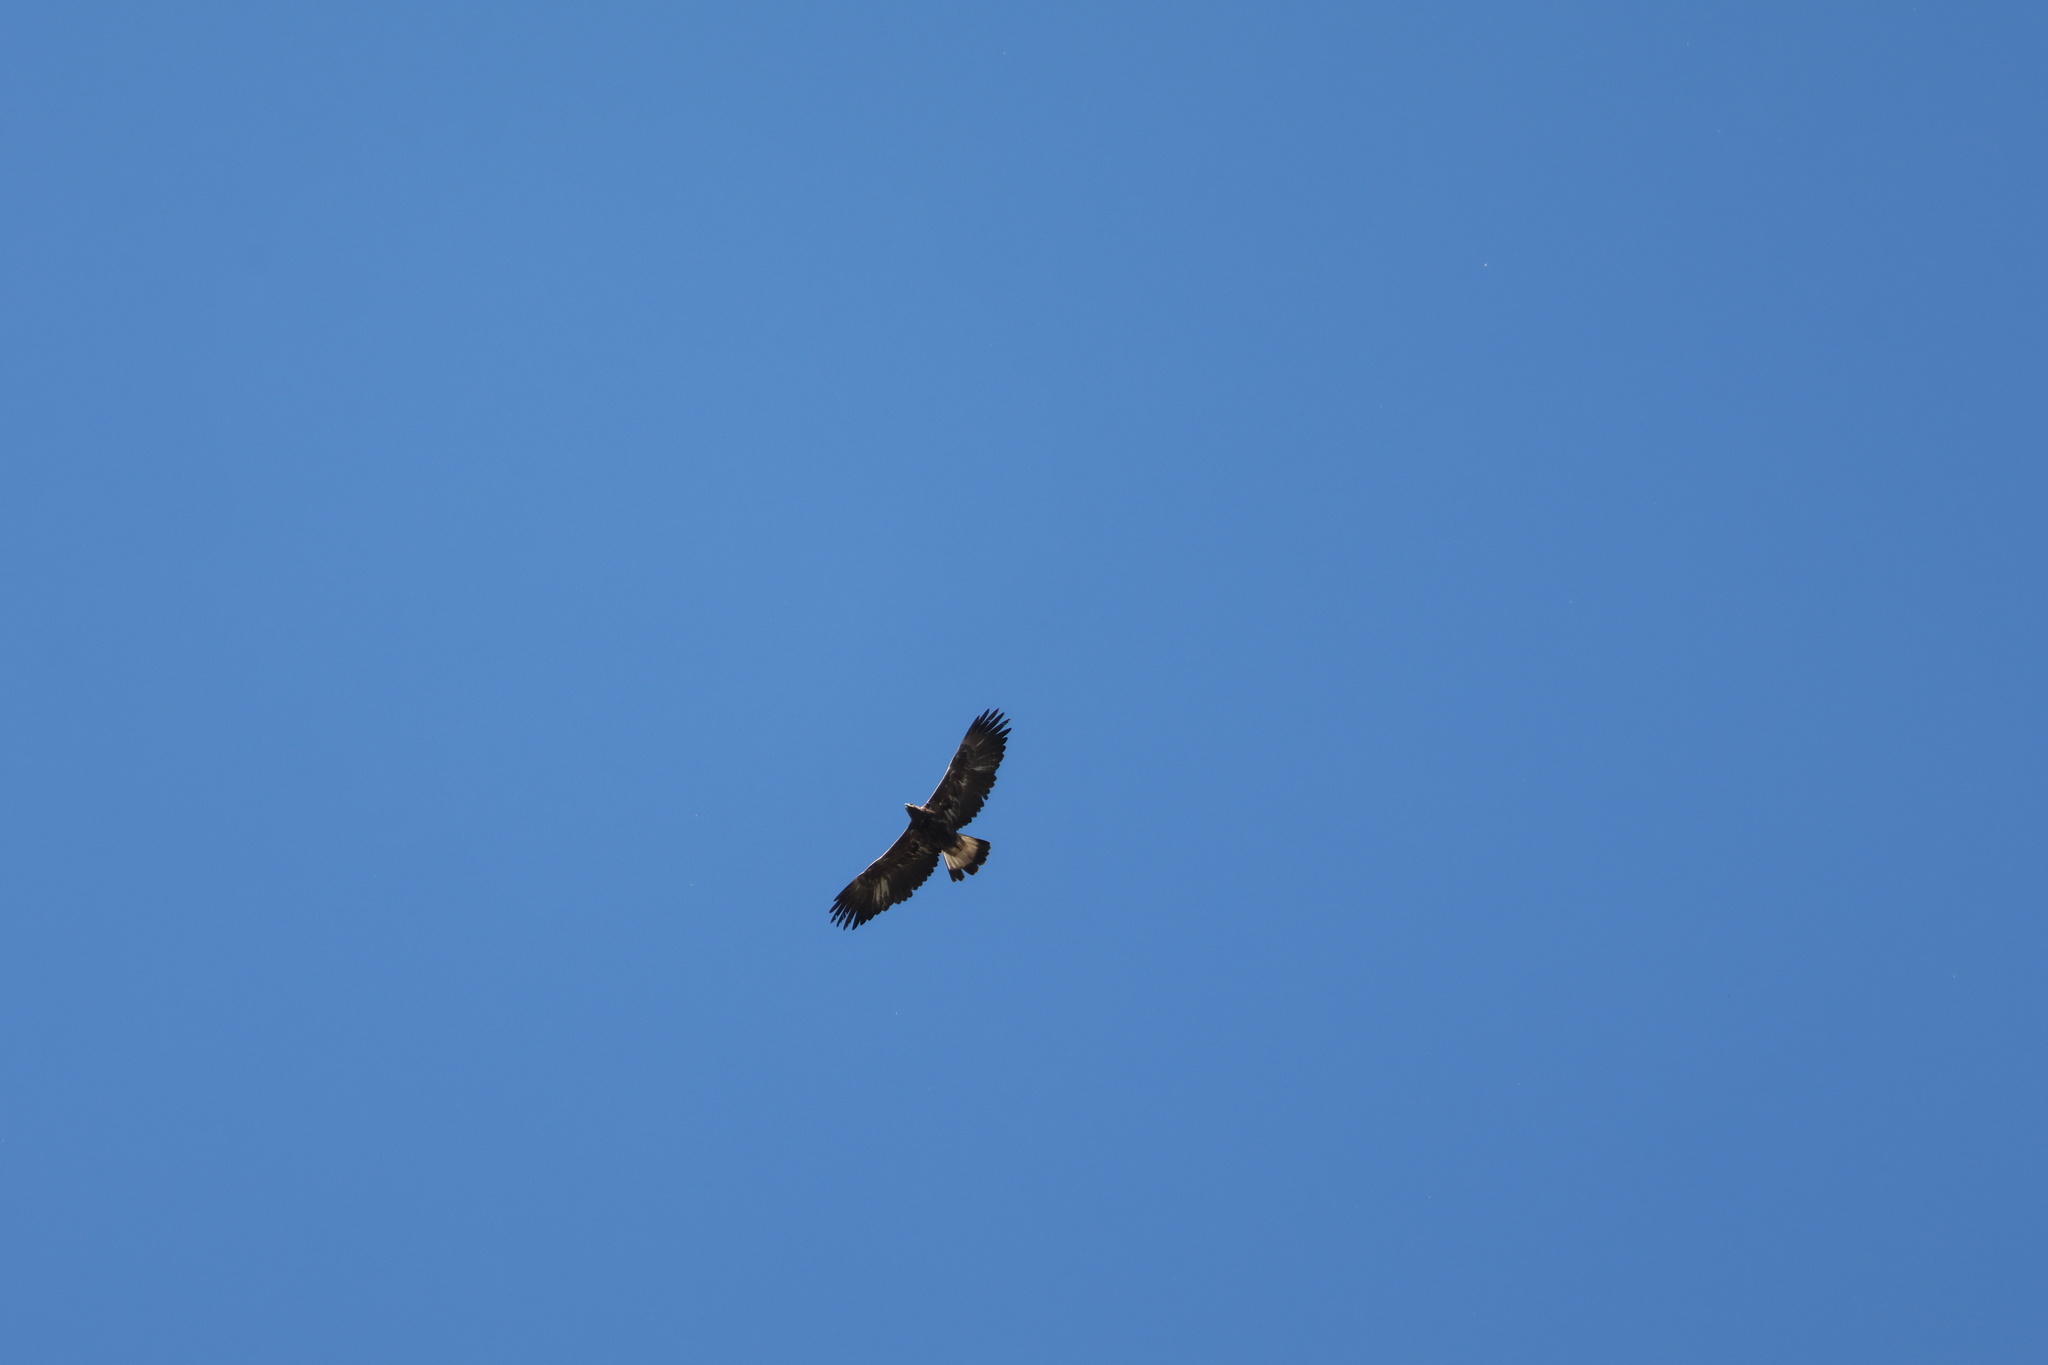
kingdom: Animalia
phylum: Chordata
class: Aves
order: Accipitriformes
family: Accipitridae
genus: Aquila
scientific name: Aquila chrysaetos
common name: Golden eagle
